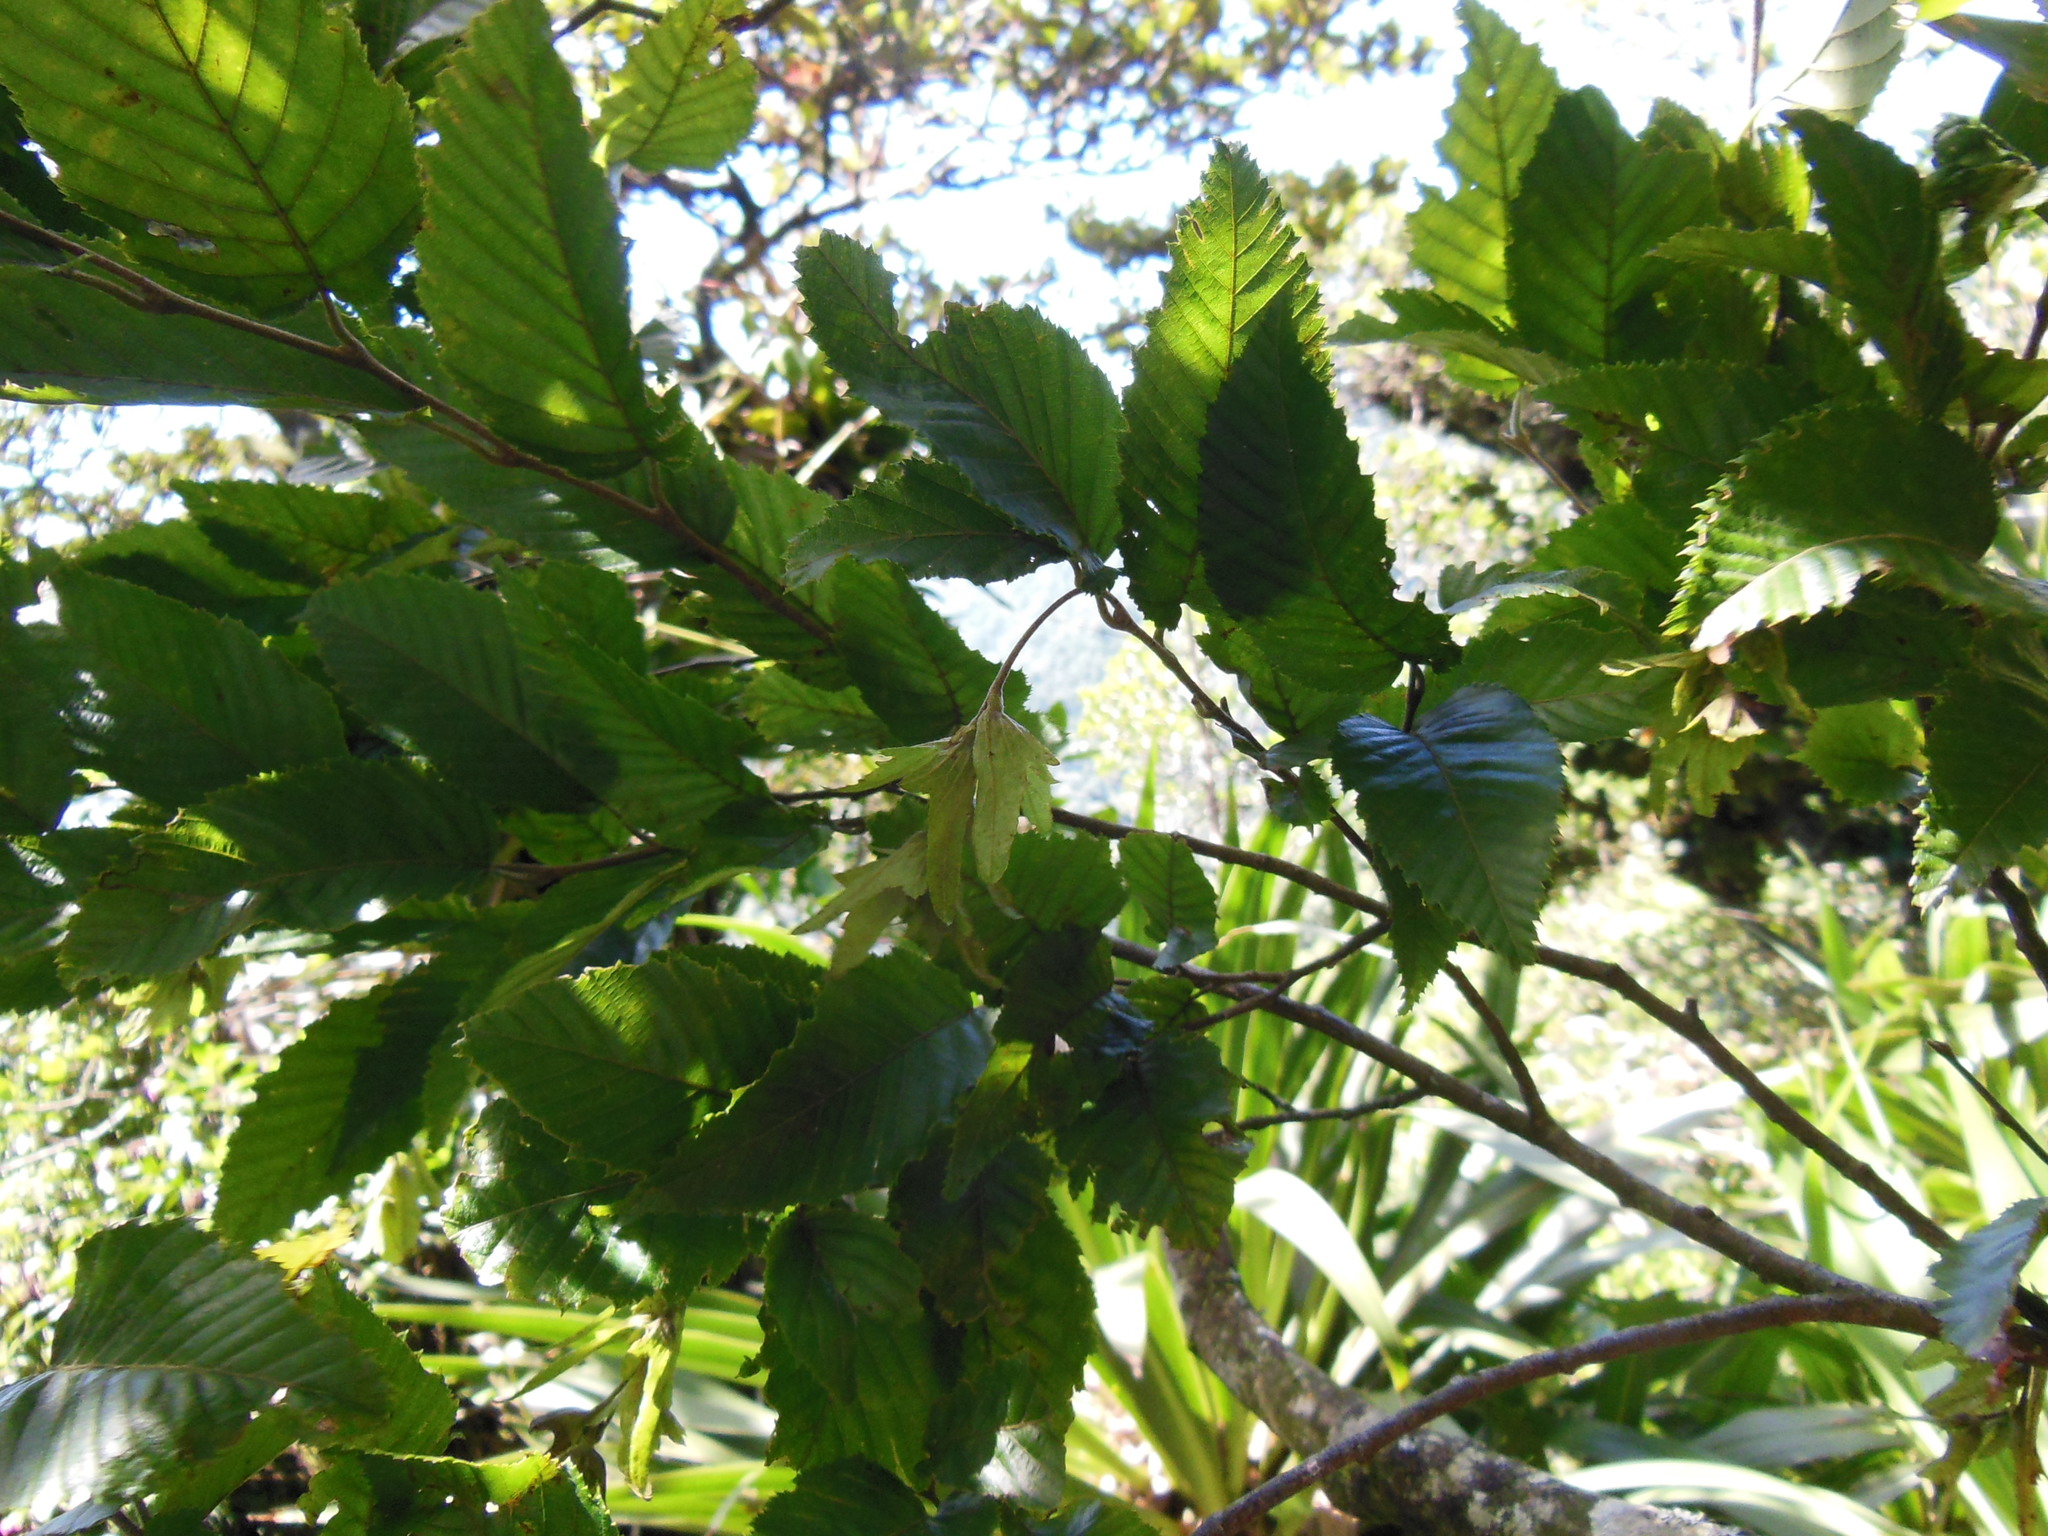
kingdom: Plantae
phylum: Tracheophyta
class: Magnoliopsida
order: Fagales
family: Betulaceae
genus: Carpinus
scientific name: Carpinus tropicalis
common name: Hornbeam
